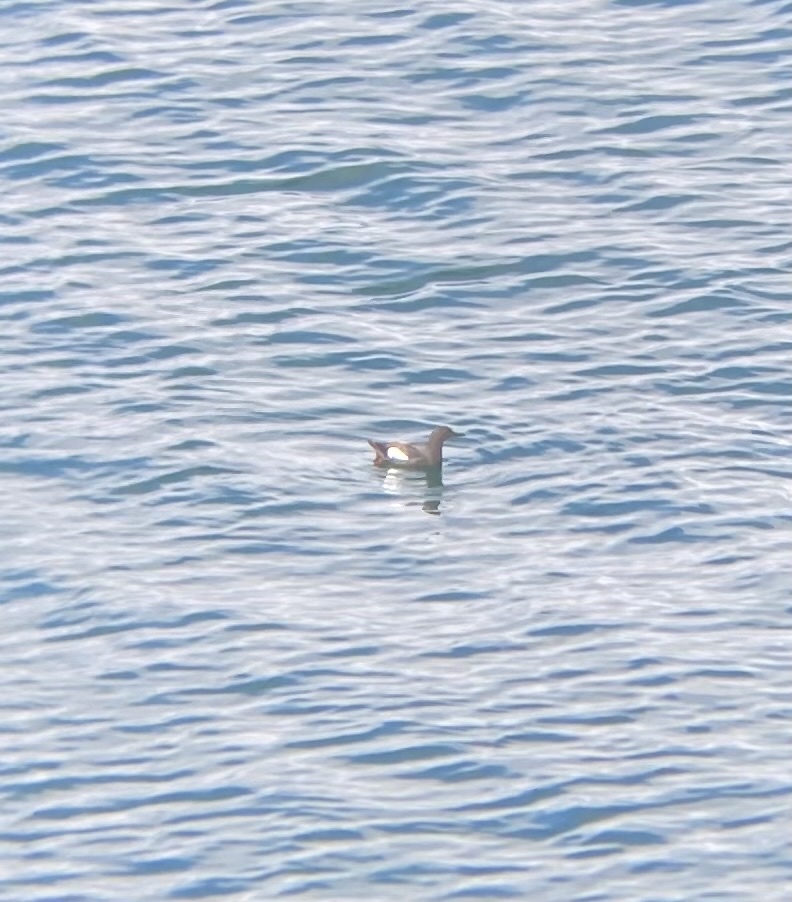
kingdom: Animalia
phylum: Chordata
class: Aves
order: Charadriiformes
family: Alcidae
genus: Cepphus
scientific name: Cepphus columba
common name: Pigeon guillemot
